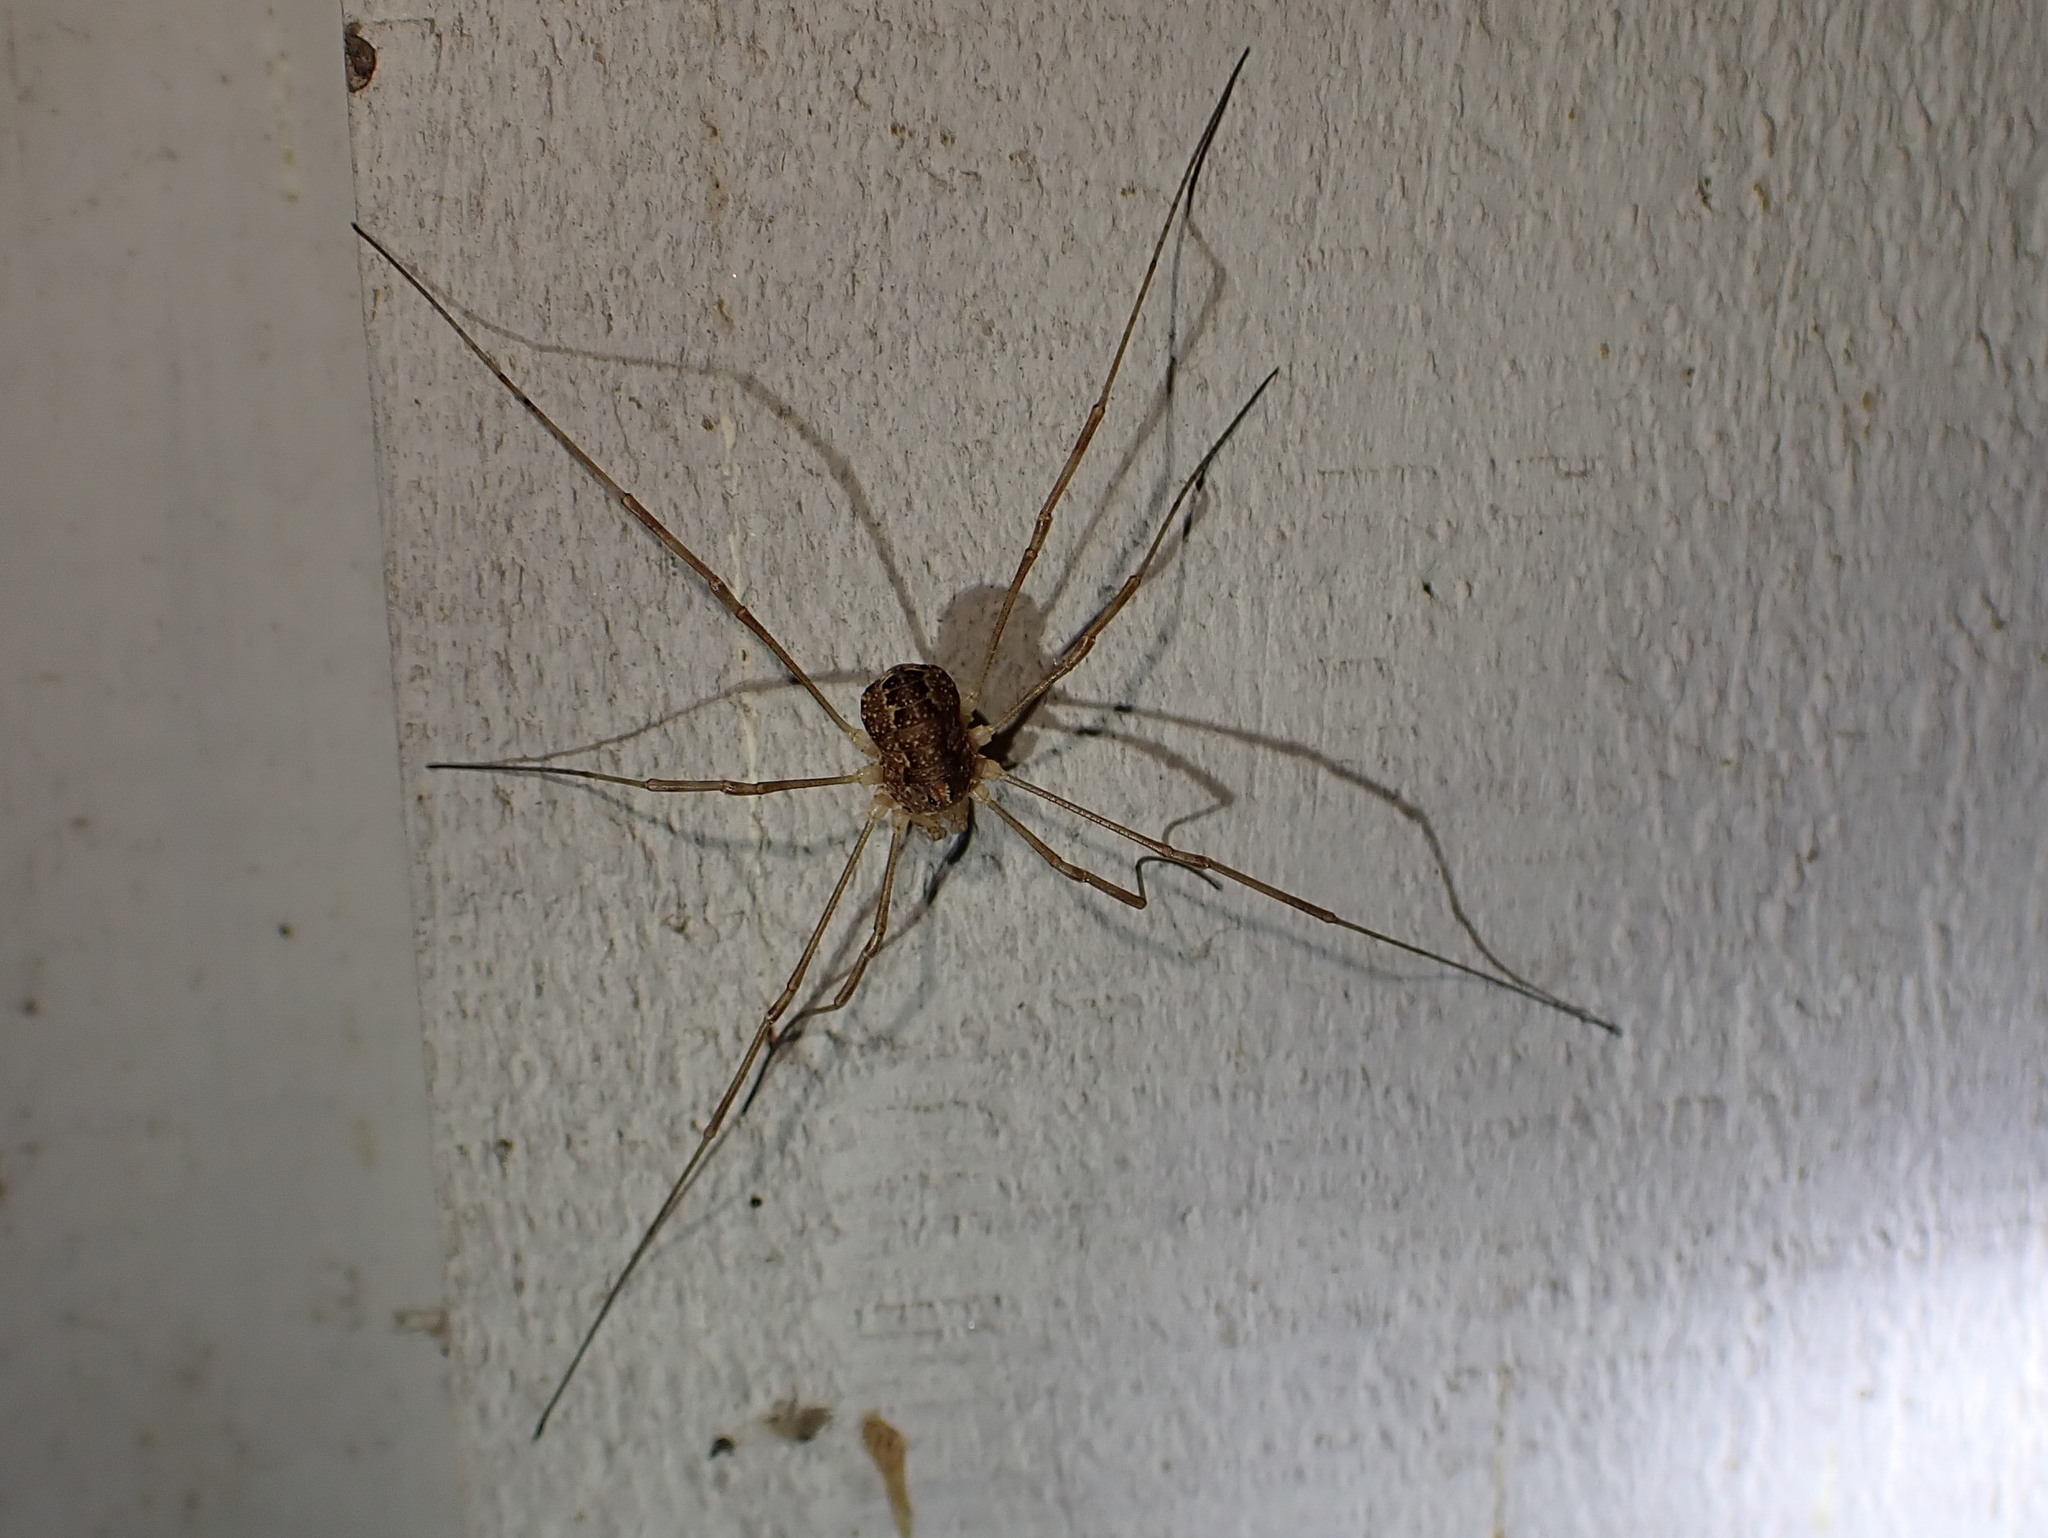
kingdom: Animalia
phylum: Arthropoda
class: Arachnida
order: Opiliones
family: Phalangiidae
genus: Rilaena
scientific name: Rilaena triangularis
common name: Spring harvestman
